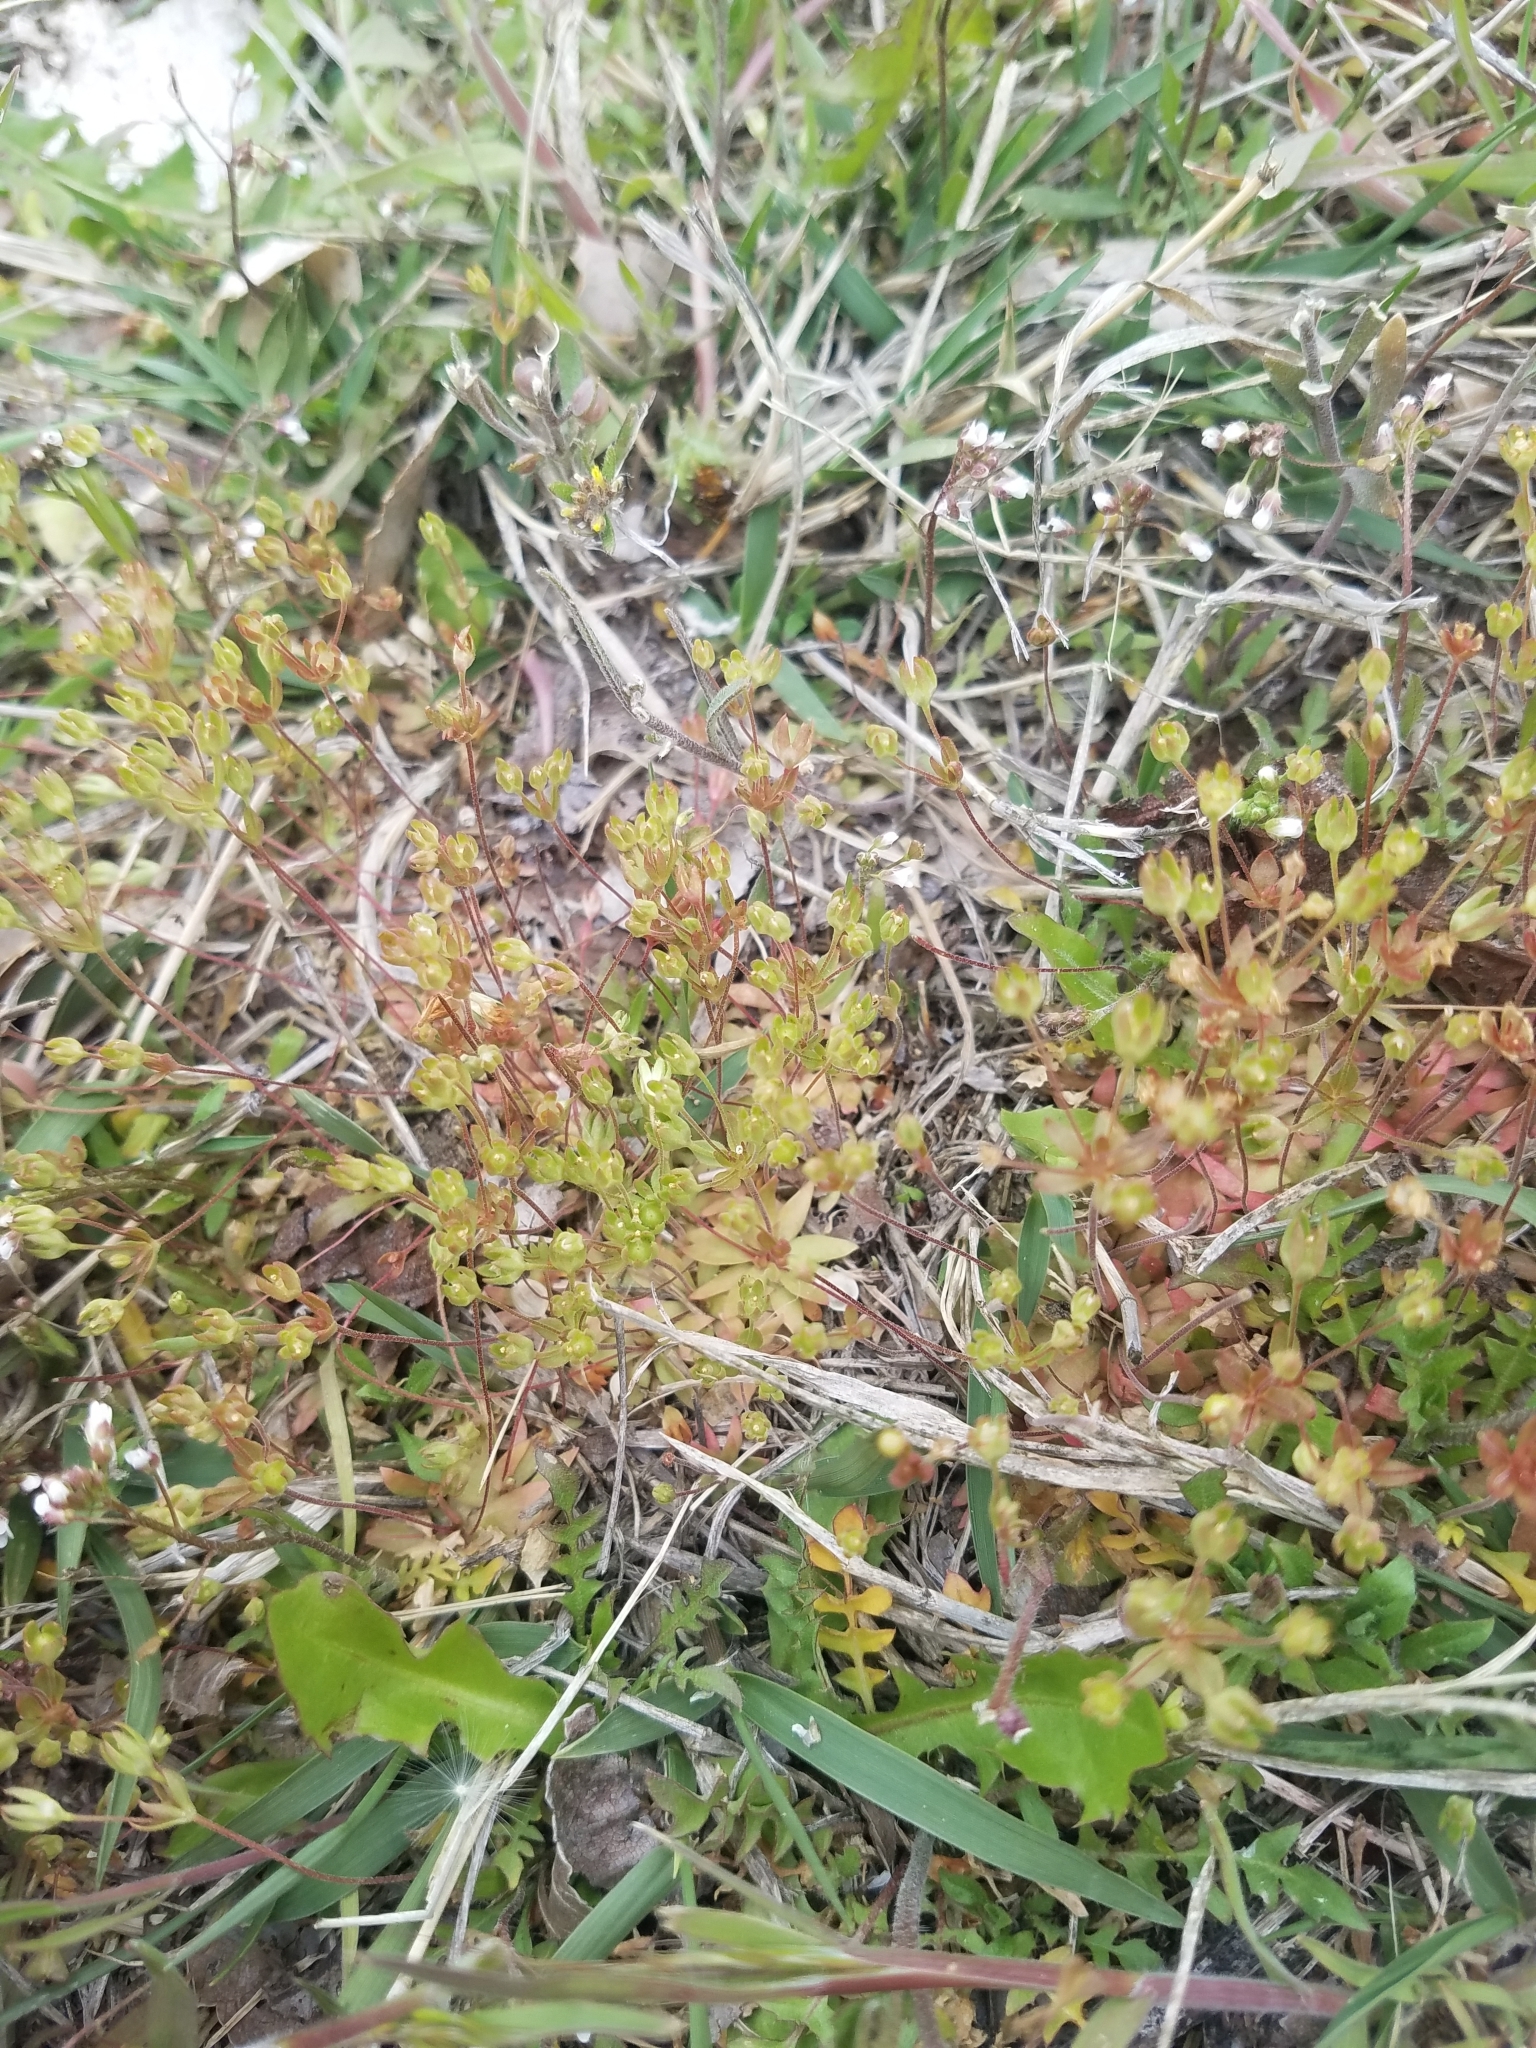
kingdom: Plantae
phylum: Tracheophyta
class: Magnoliopsida
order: Ericales
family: Primulaceae
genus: Androsace
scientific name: Androsace occidentalis
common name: West rock-jasmine
